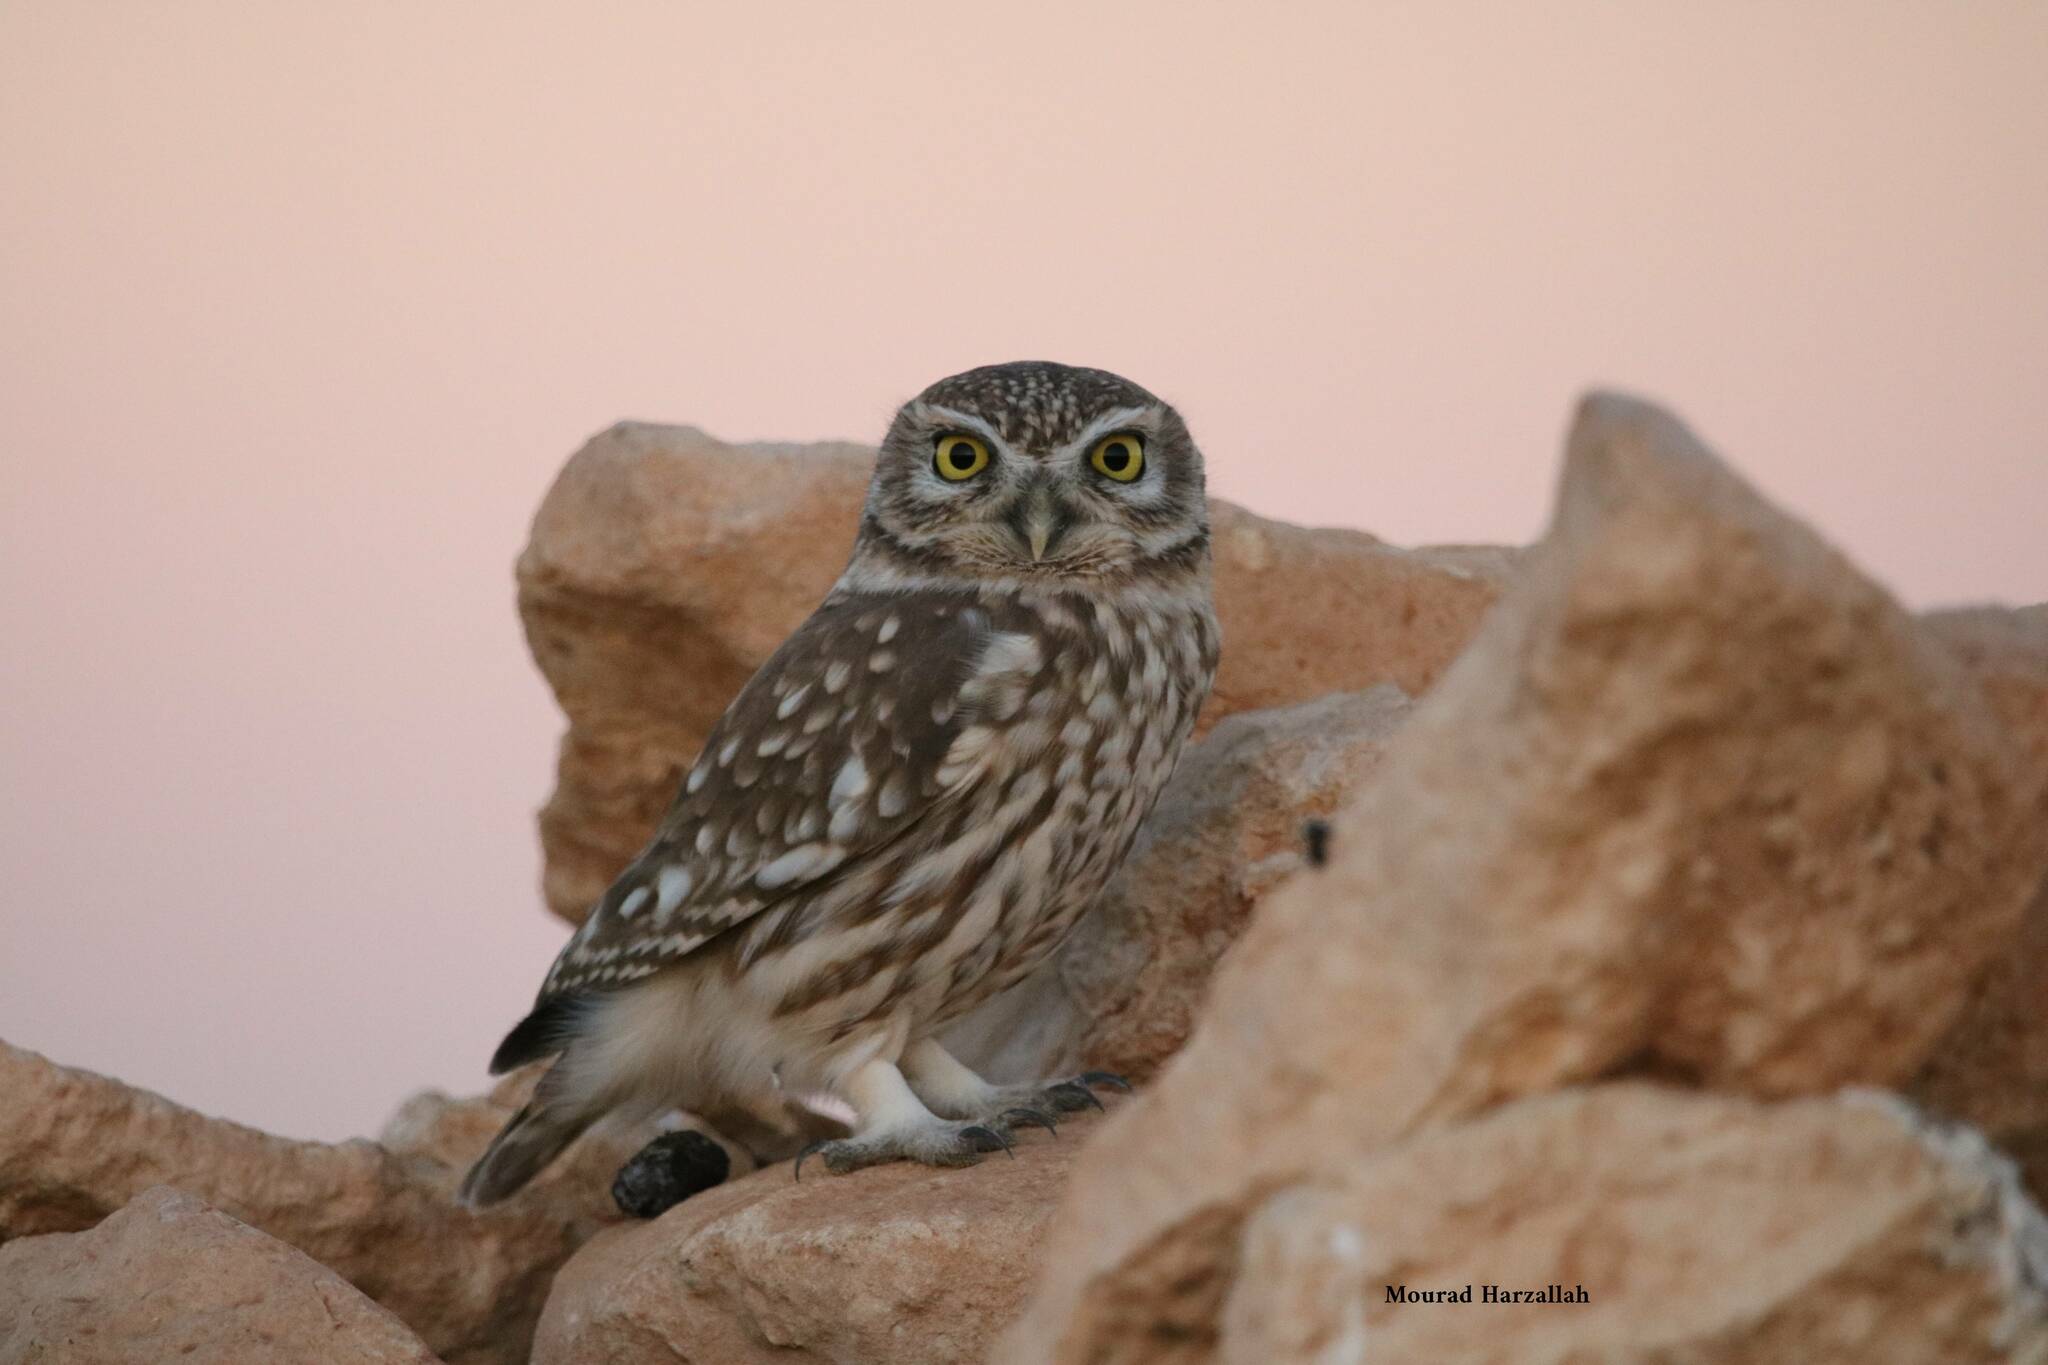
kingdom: Animalia
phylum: Chordata
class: Aves
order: Strigiformes
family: Strigidae
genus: Athene
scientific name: Athene noctua
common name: Little owl
